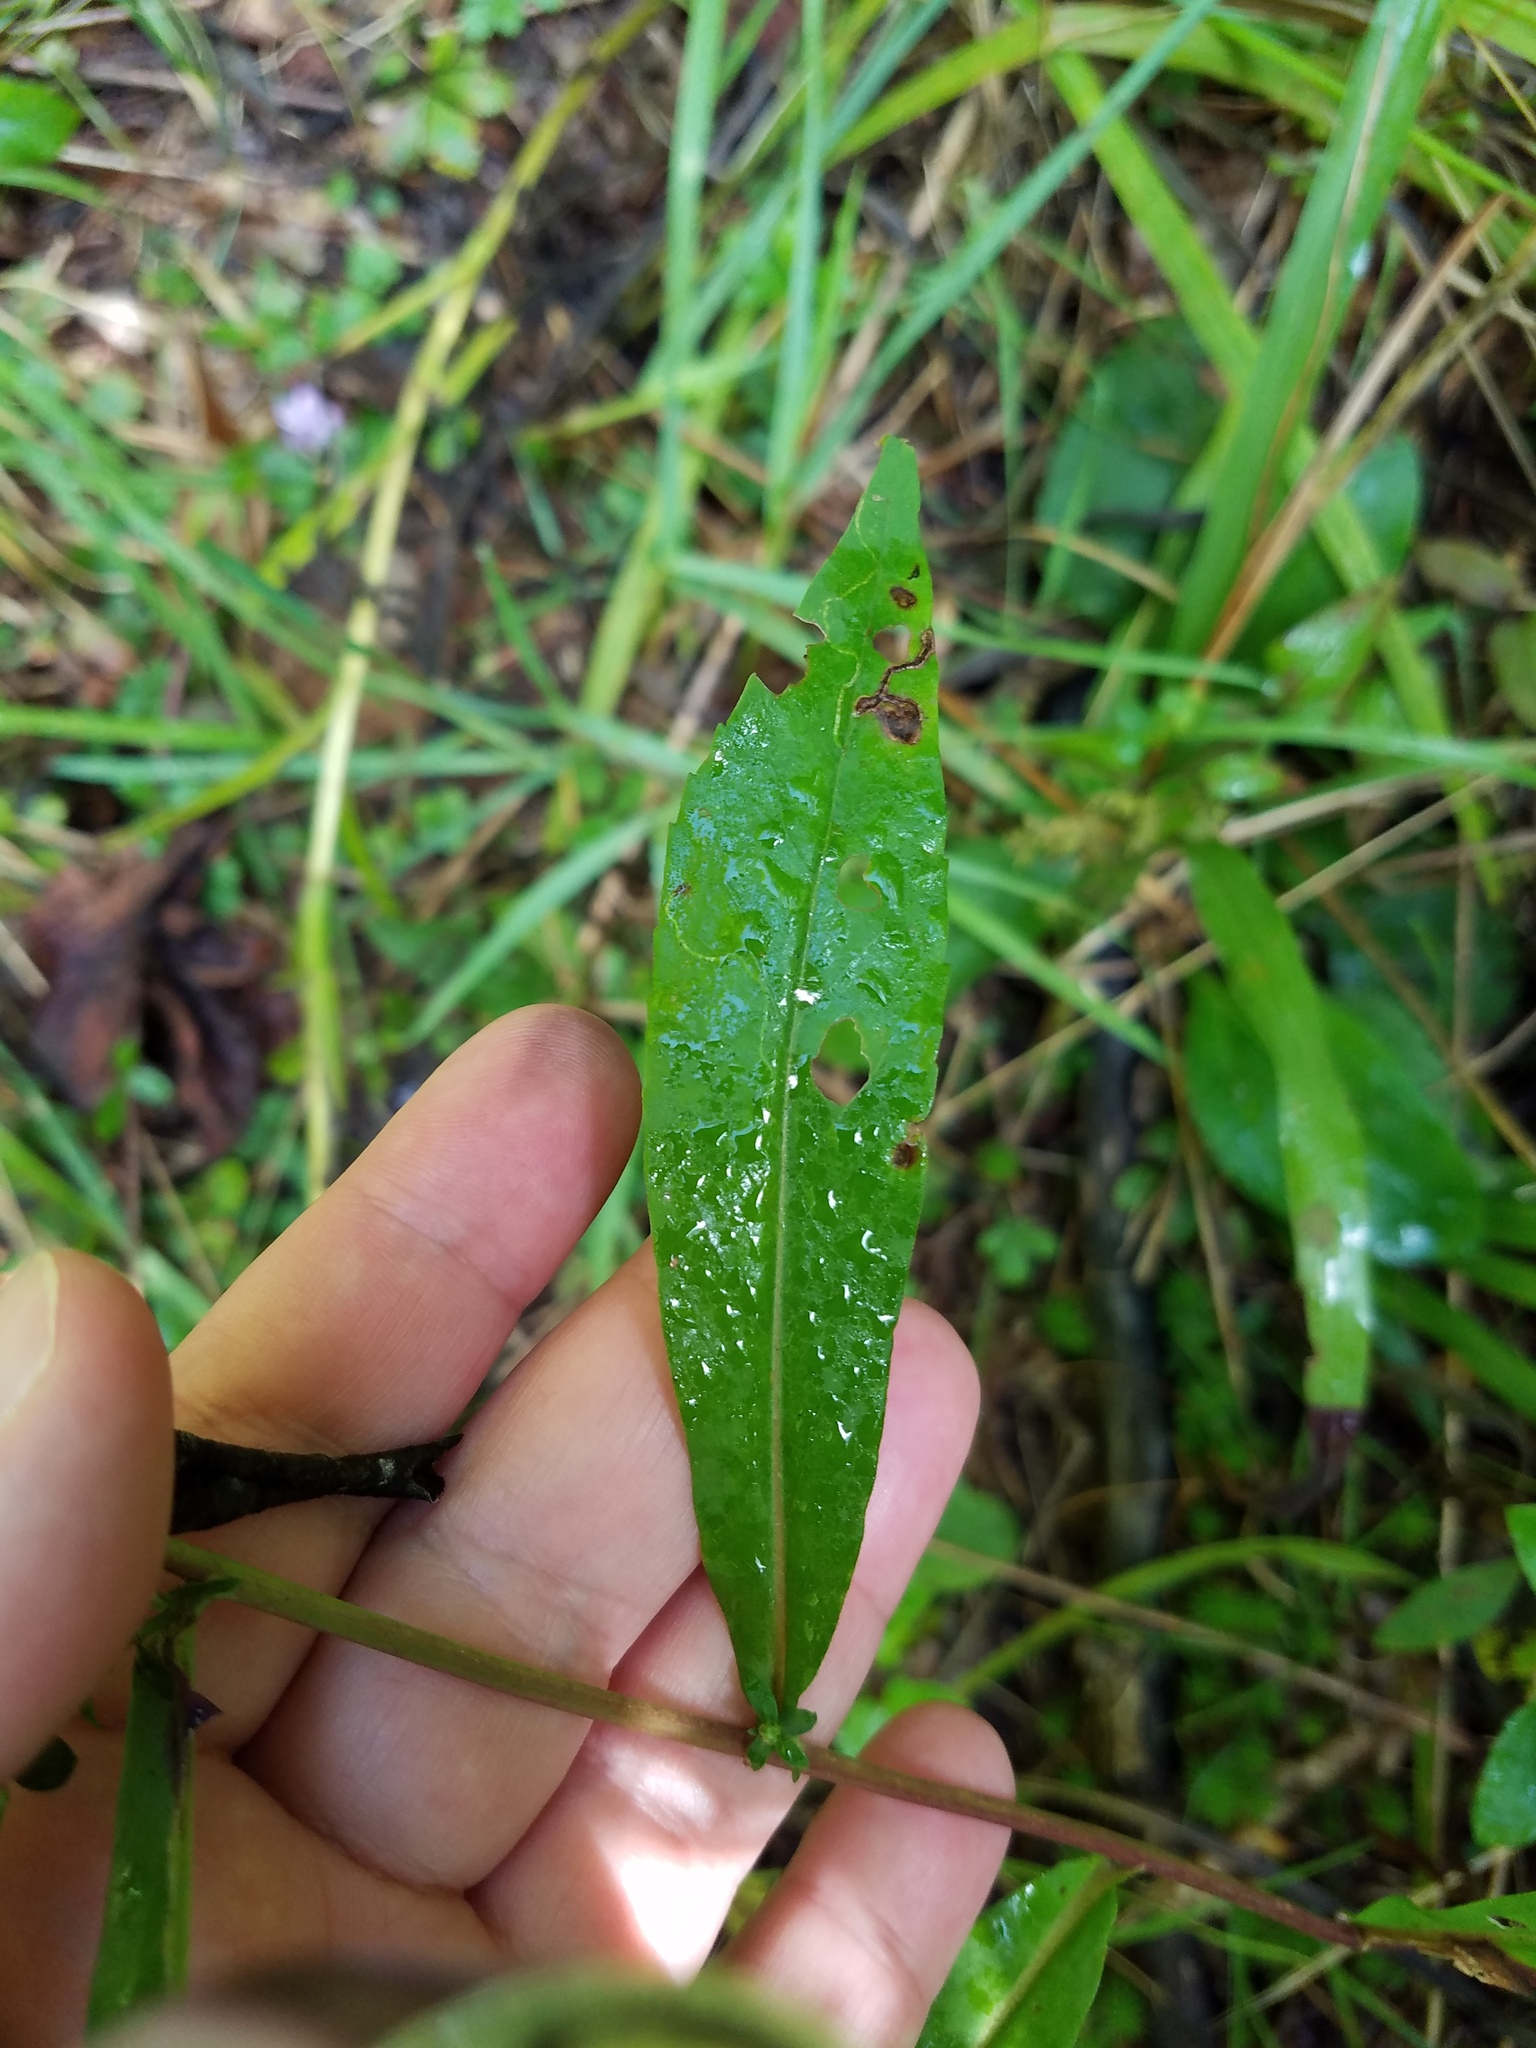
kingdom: Plantae
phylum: Tracheophyta
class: Magnoliopsida
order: Asterales
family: Asteraceae
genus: Symphyotrichum
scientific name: Symphyotrichum lateriflorum
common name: Calico aster
